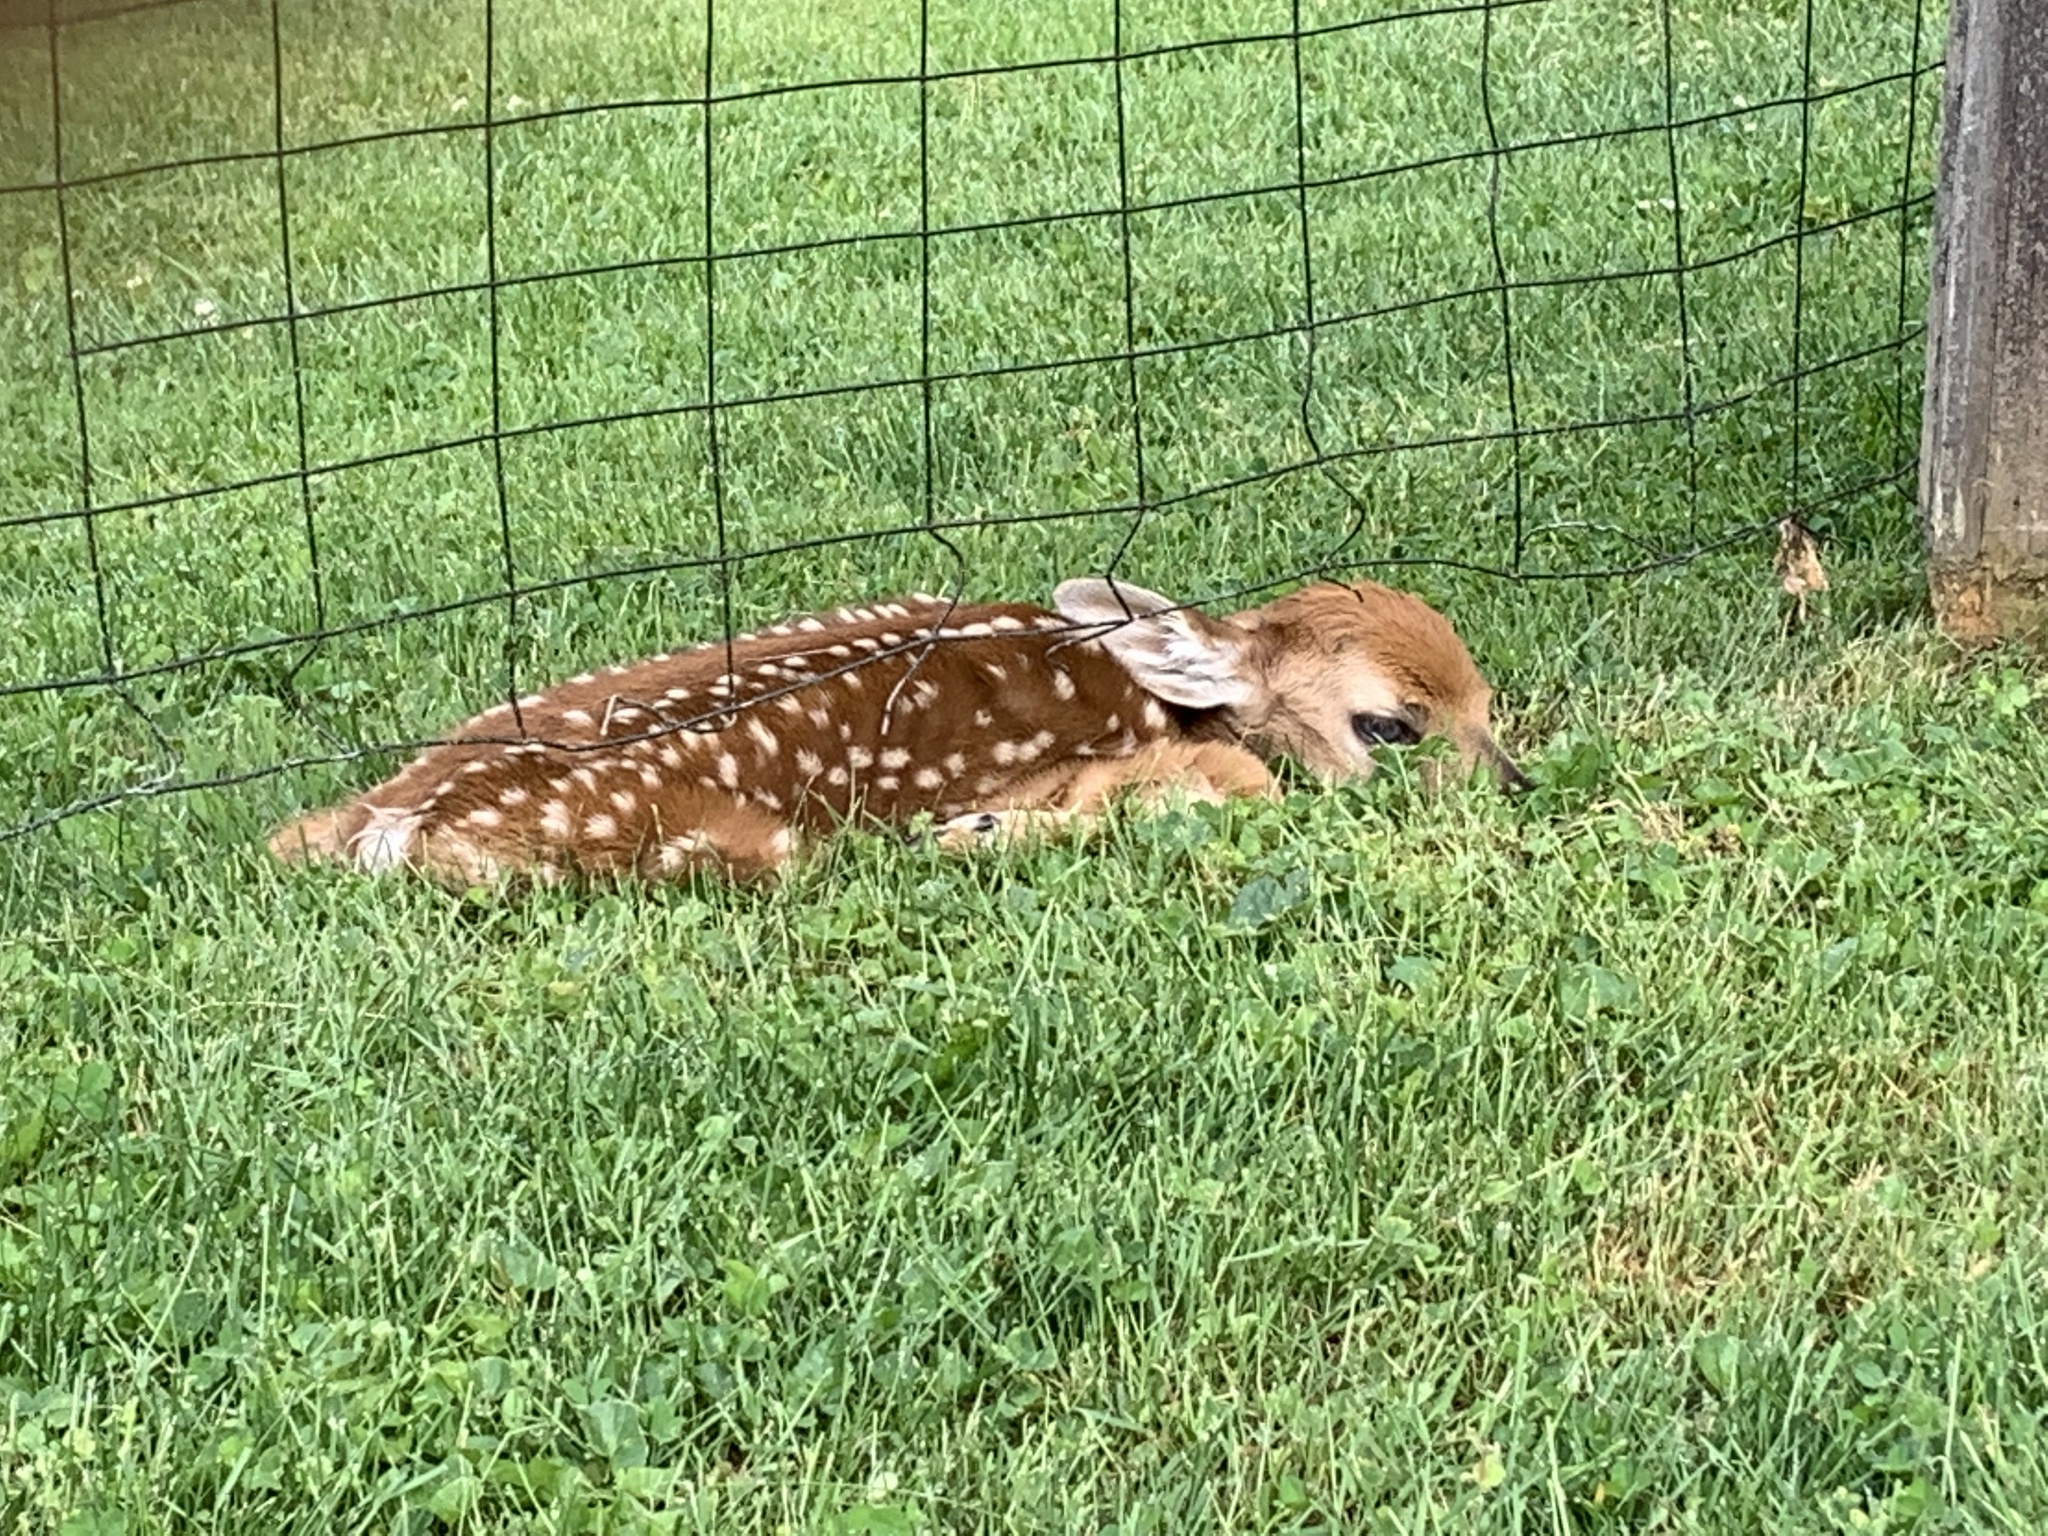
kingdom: Animalia
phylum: Chordata
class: Mammalia
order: Artiodactyla
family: Cervidae
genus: Odocoileus
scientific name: Odocoileus virginianus
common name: White-tailed deer
